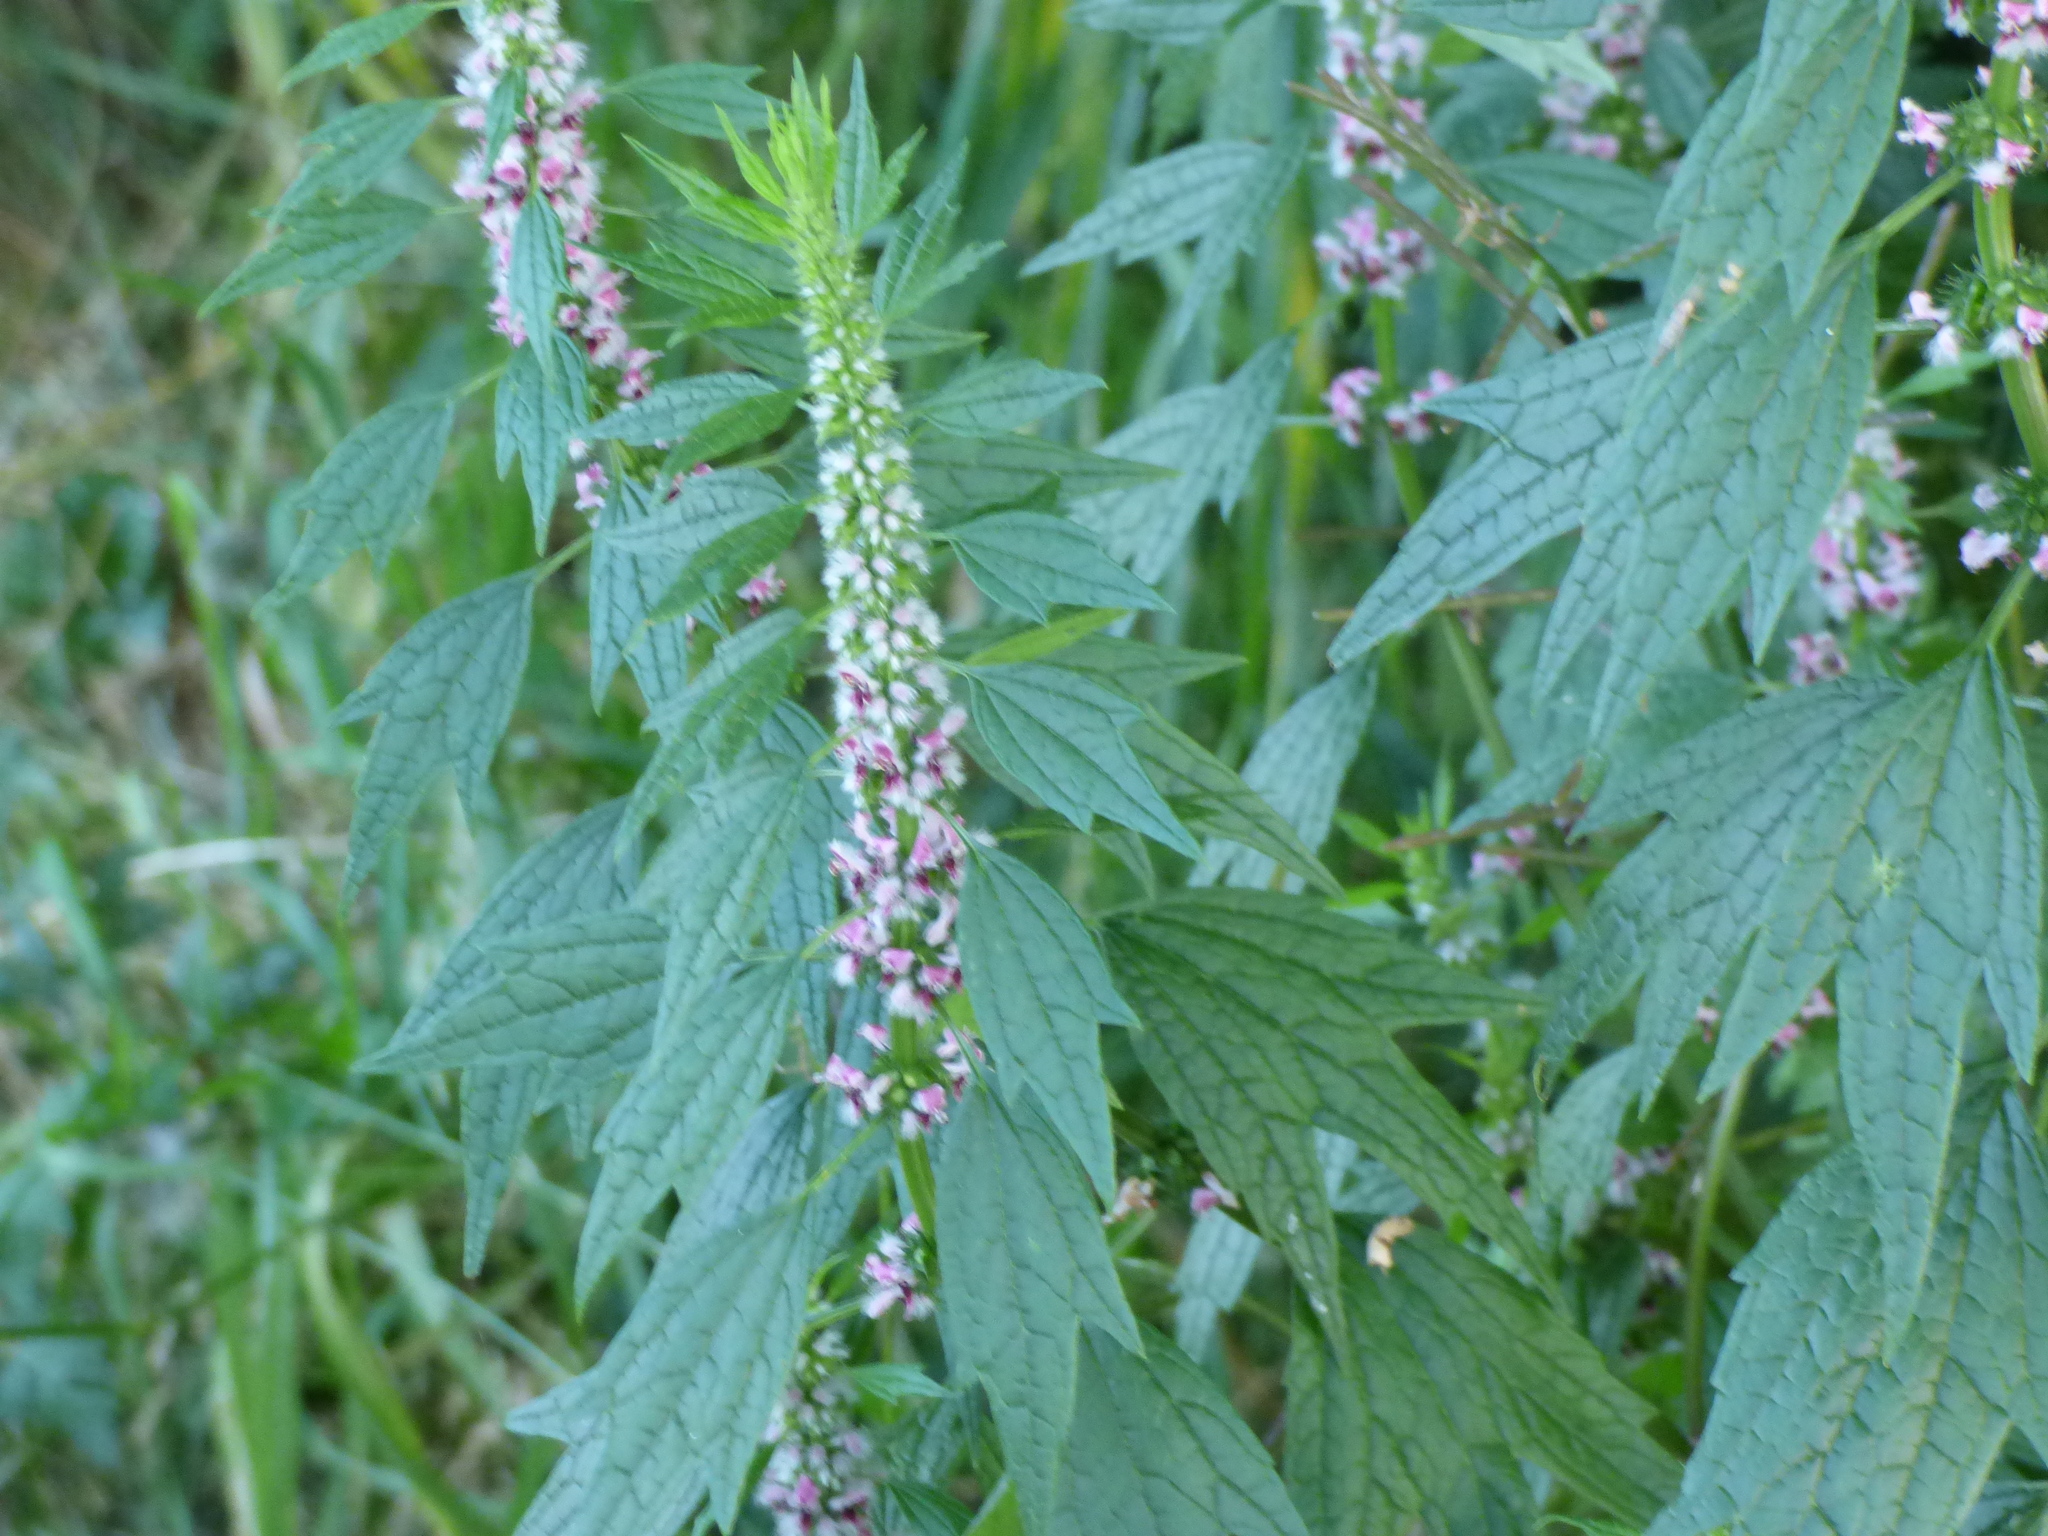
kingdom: Plantae
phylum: Tracheophyta
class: Magnoliopsida
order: Lamiales
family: Lamiaceae
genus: Leonurus
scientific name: Leonurus cardiaca
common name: Motherwort
